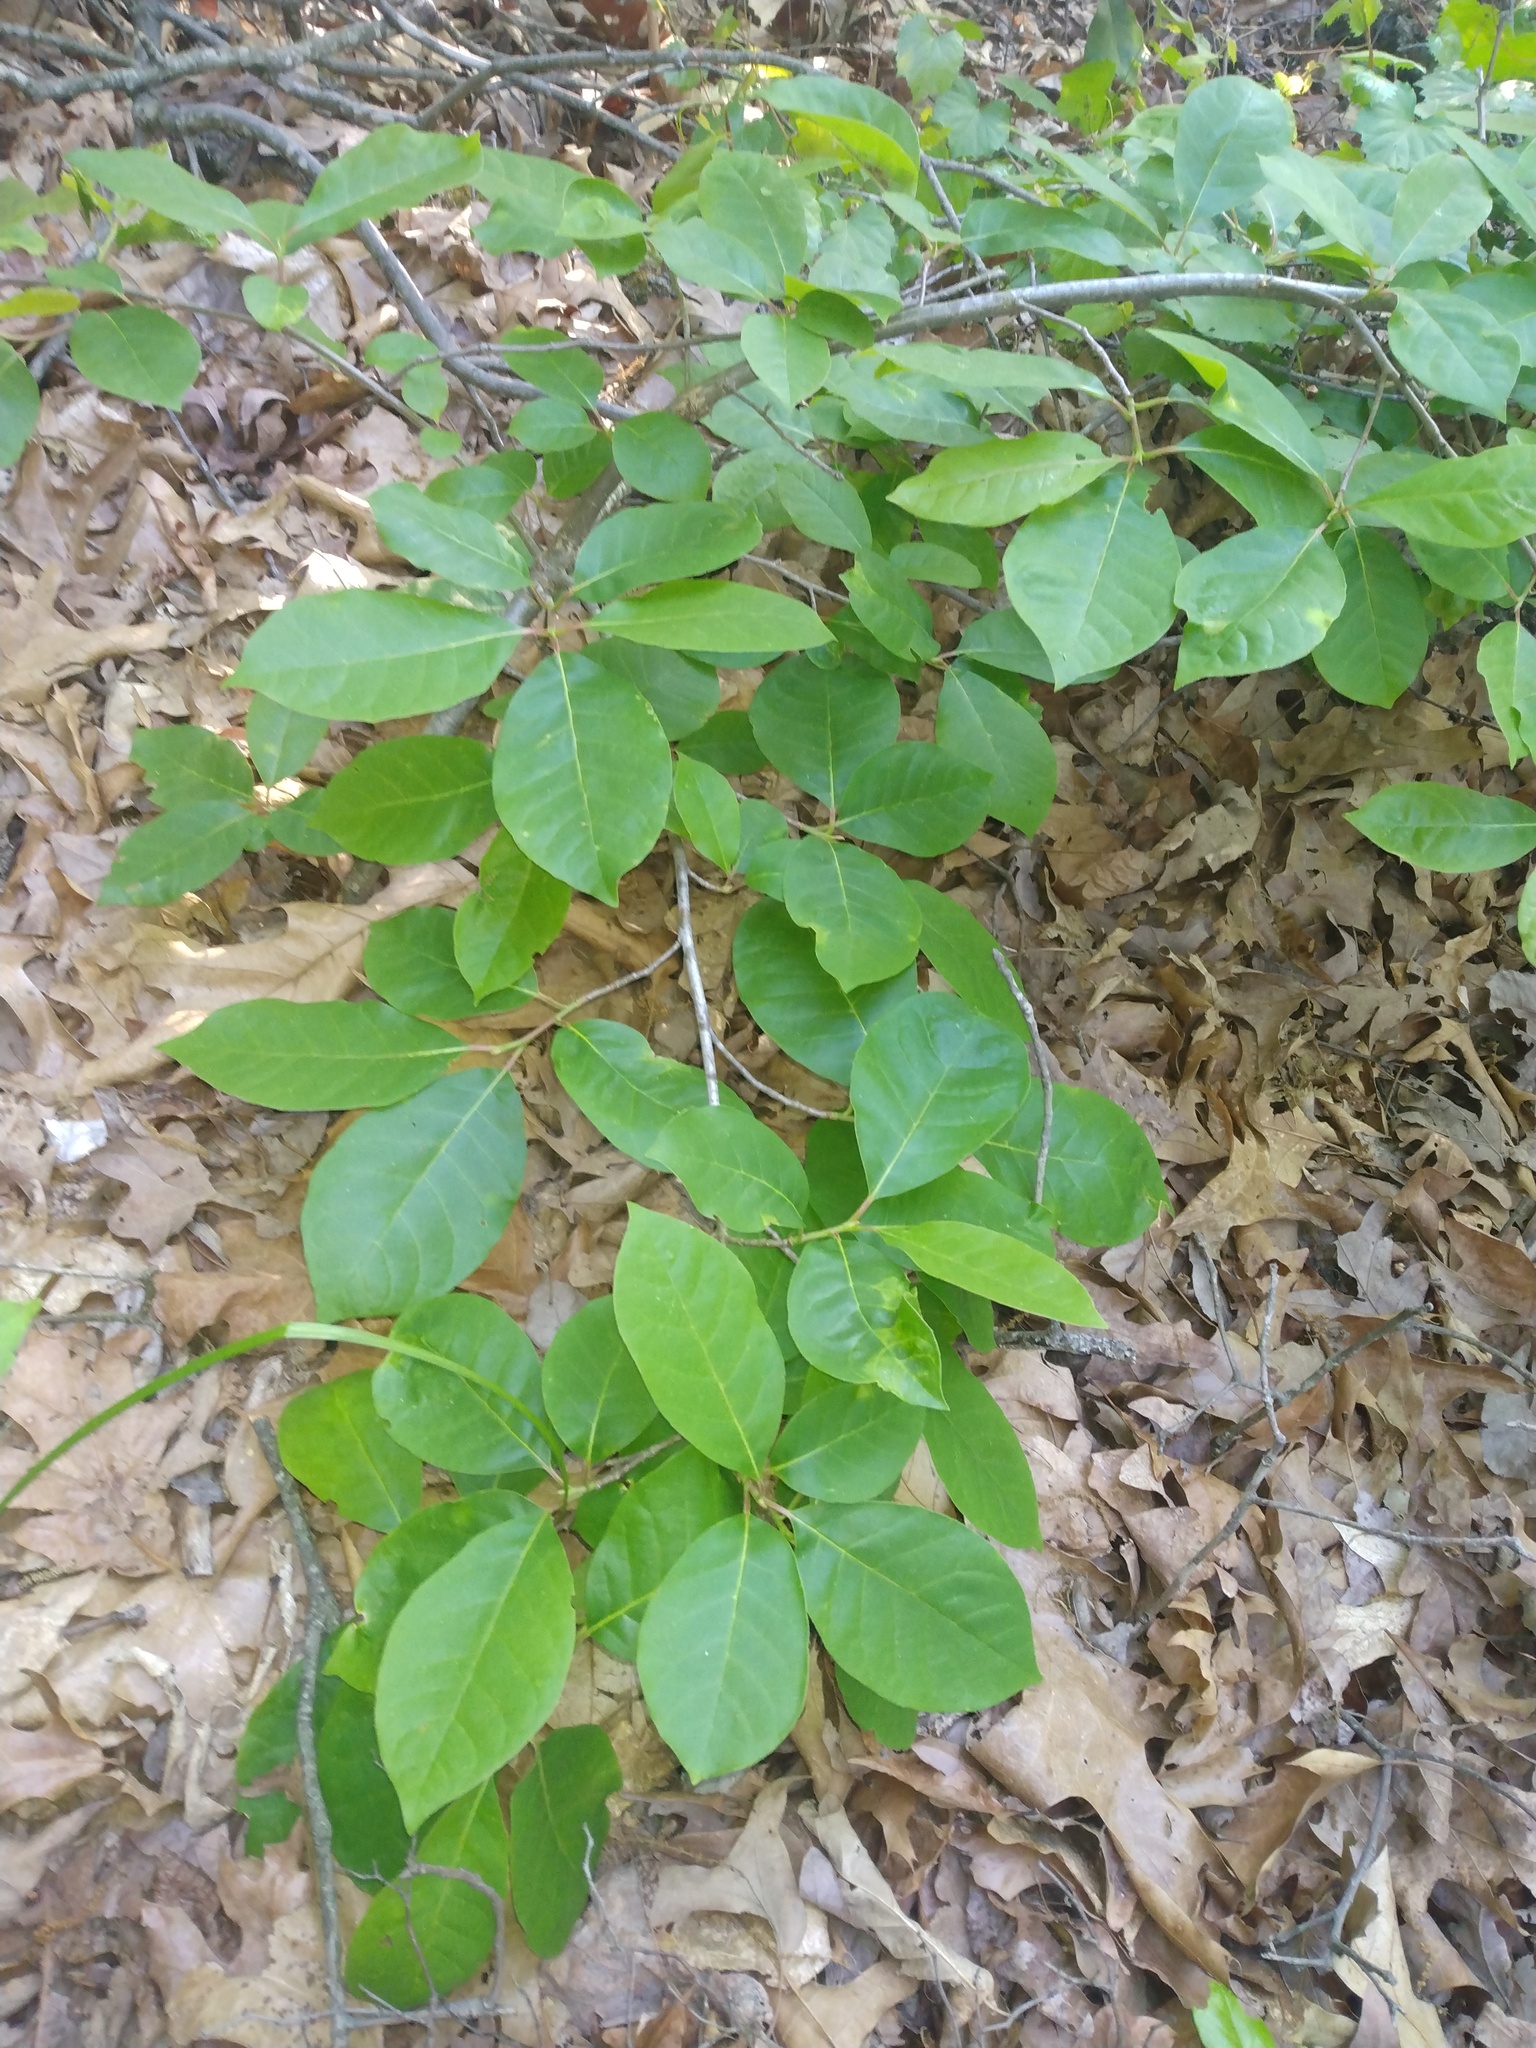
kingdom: Plantae
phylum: Tracheophyta
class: Magnoliopsida
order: Cornales
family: Nyssaceae
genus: Nyssa
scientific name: Nyssa sylvatica
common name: Black tupelo
